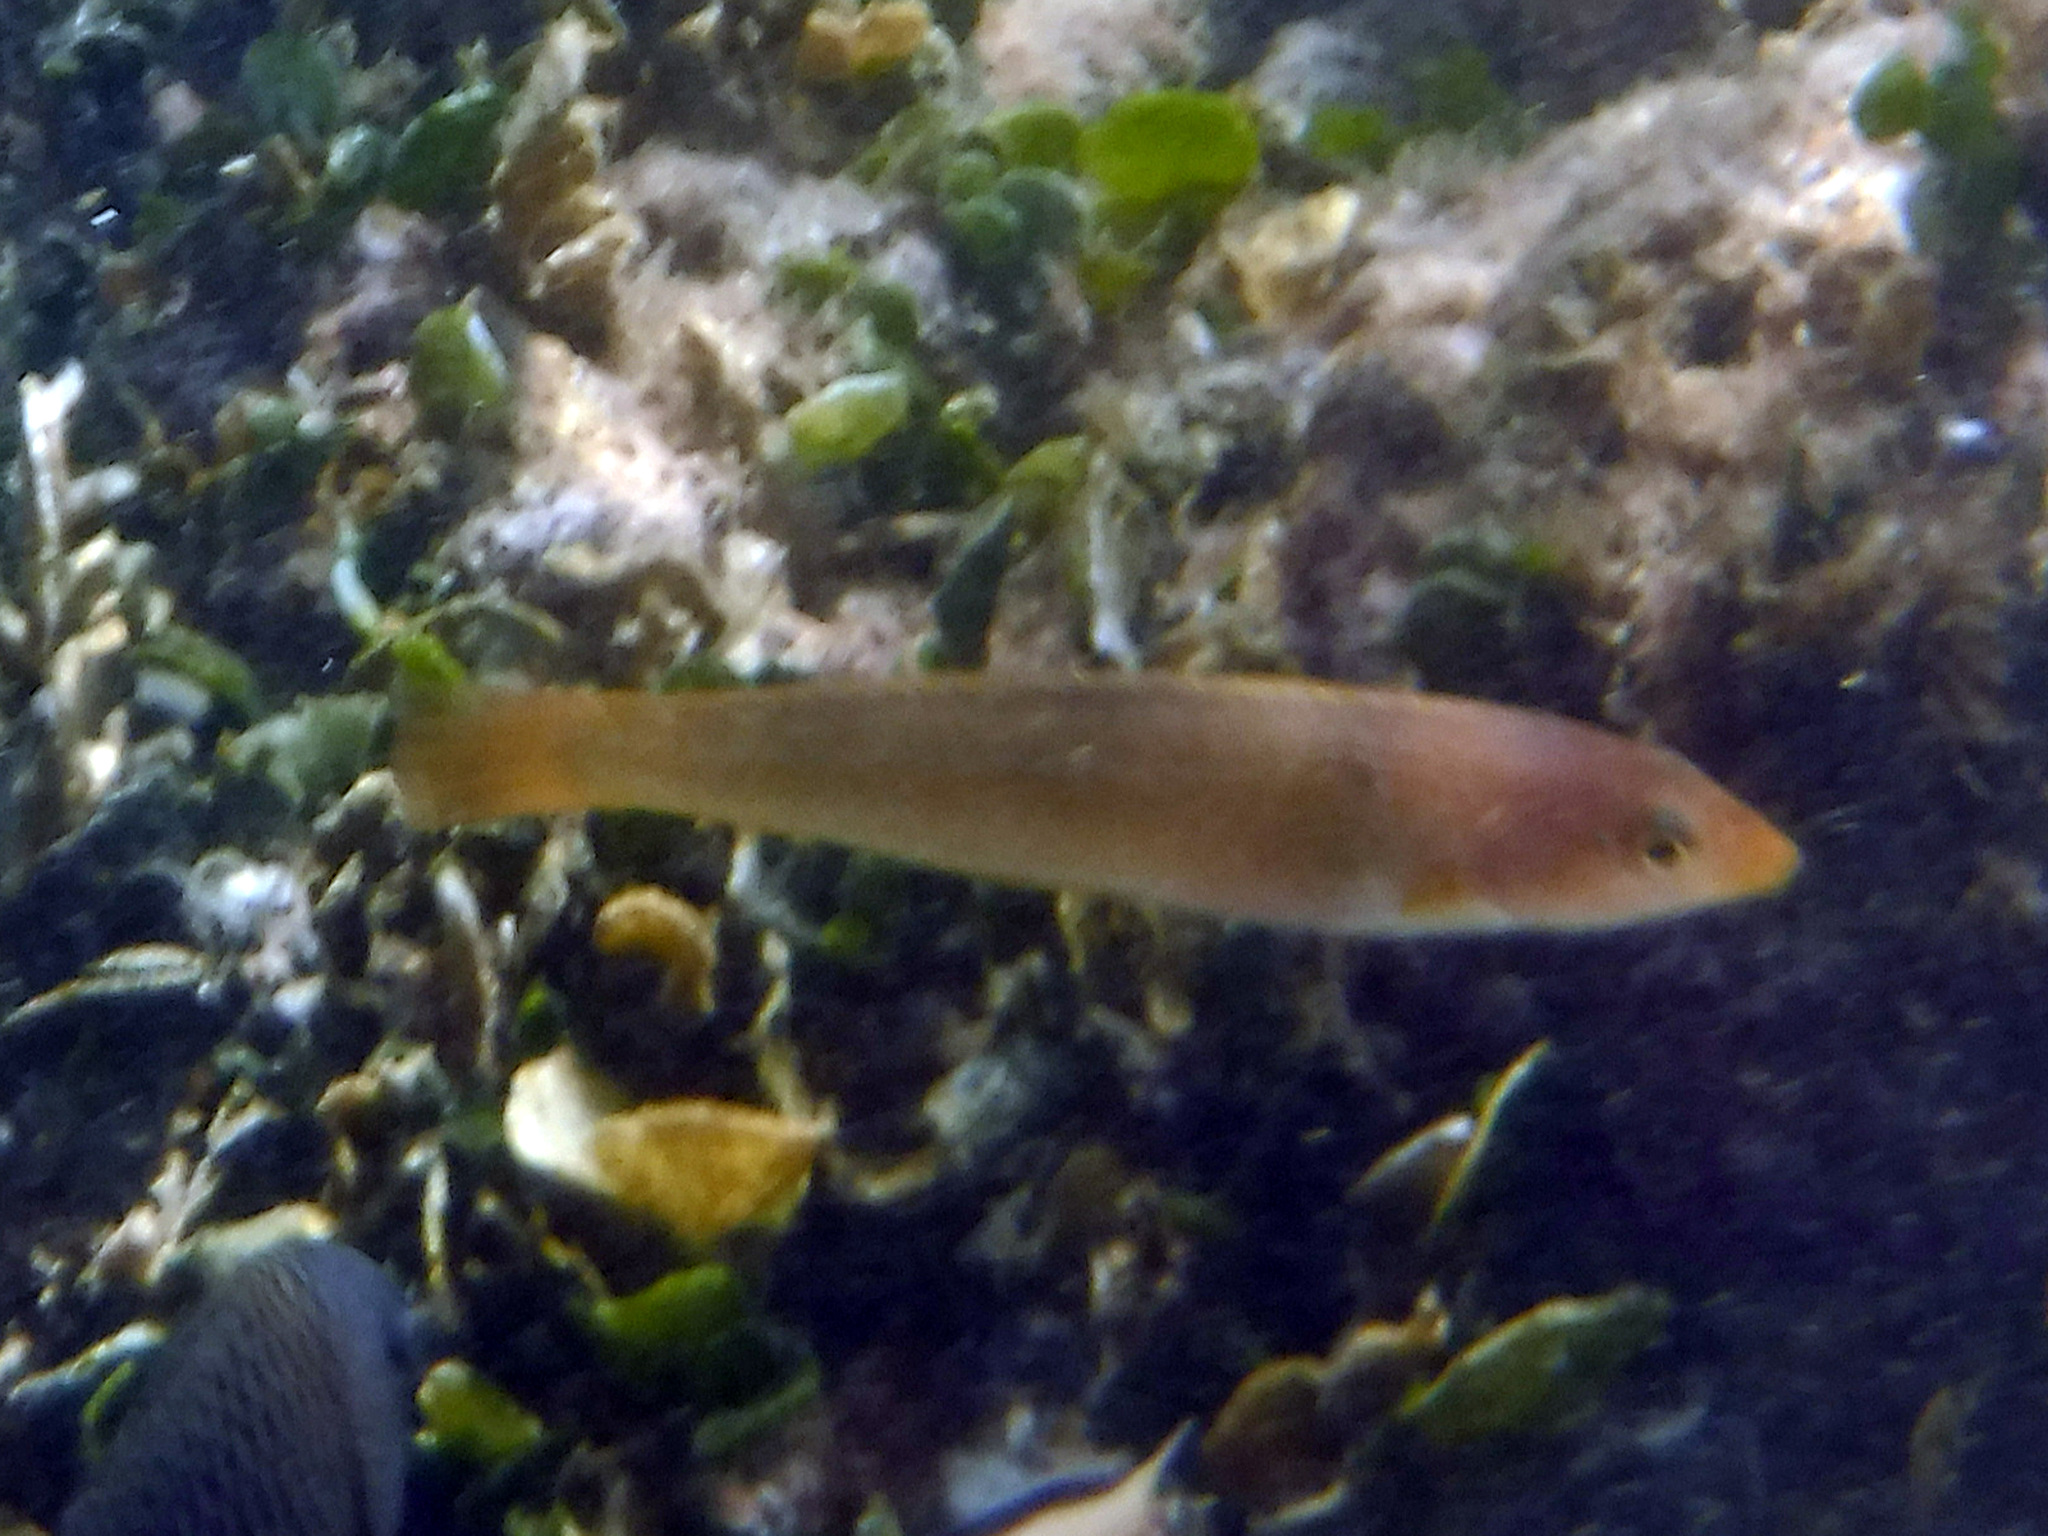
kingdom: Animalia
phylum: Chordata
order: Perciformes
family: Labridae
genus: Halichoeres
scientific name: Halichoeres dispilus
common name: Chameleon wrasse
